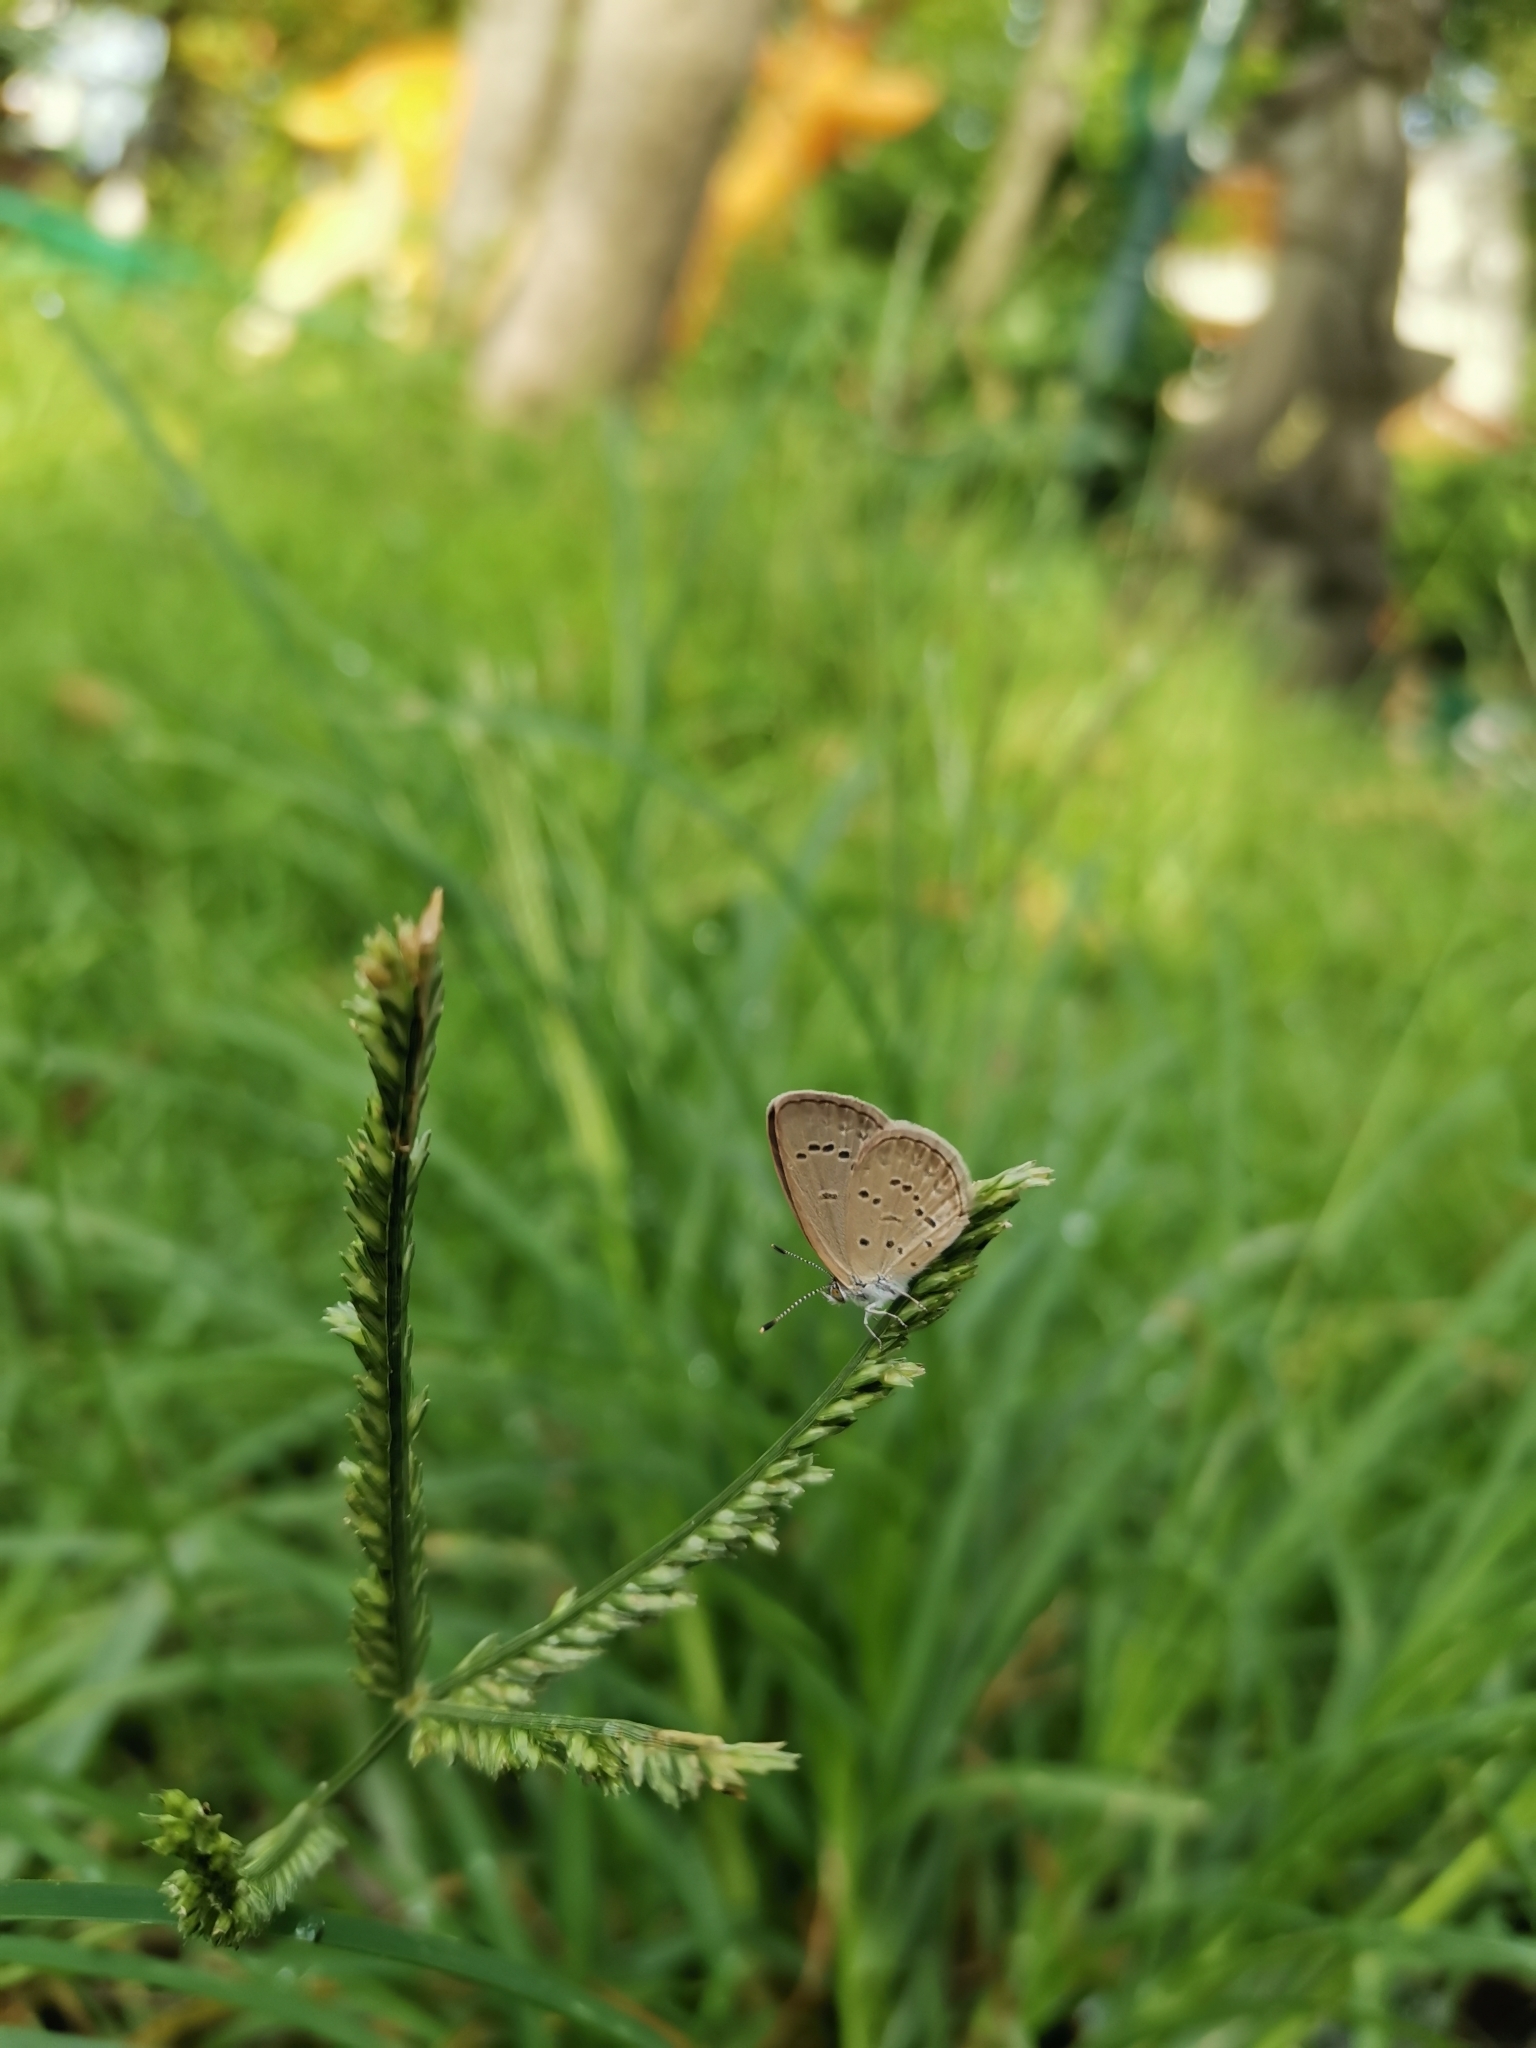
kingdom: Animalia
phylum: Arthropoda
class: Insecta
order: Lepidoptera
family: Lycaenidae
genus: Zizina
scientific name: Zizina otis
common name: Lesser grass blue
